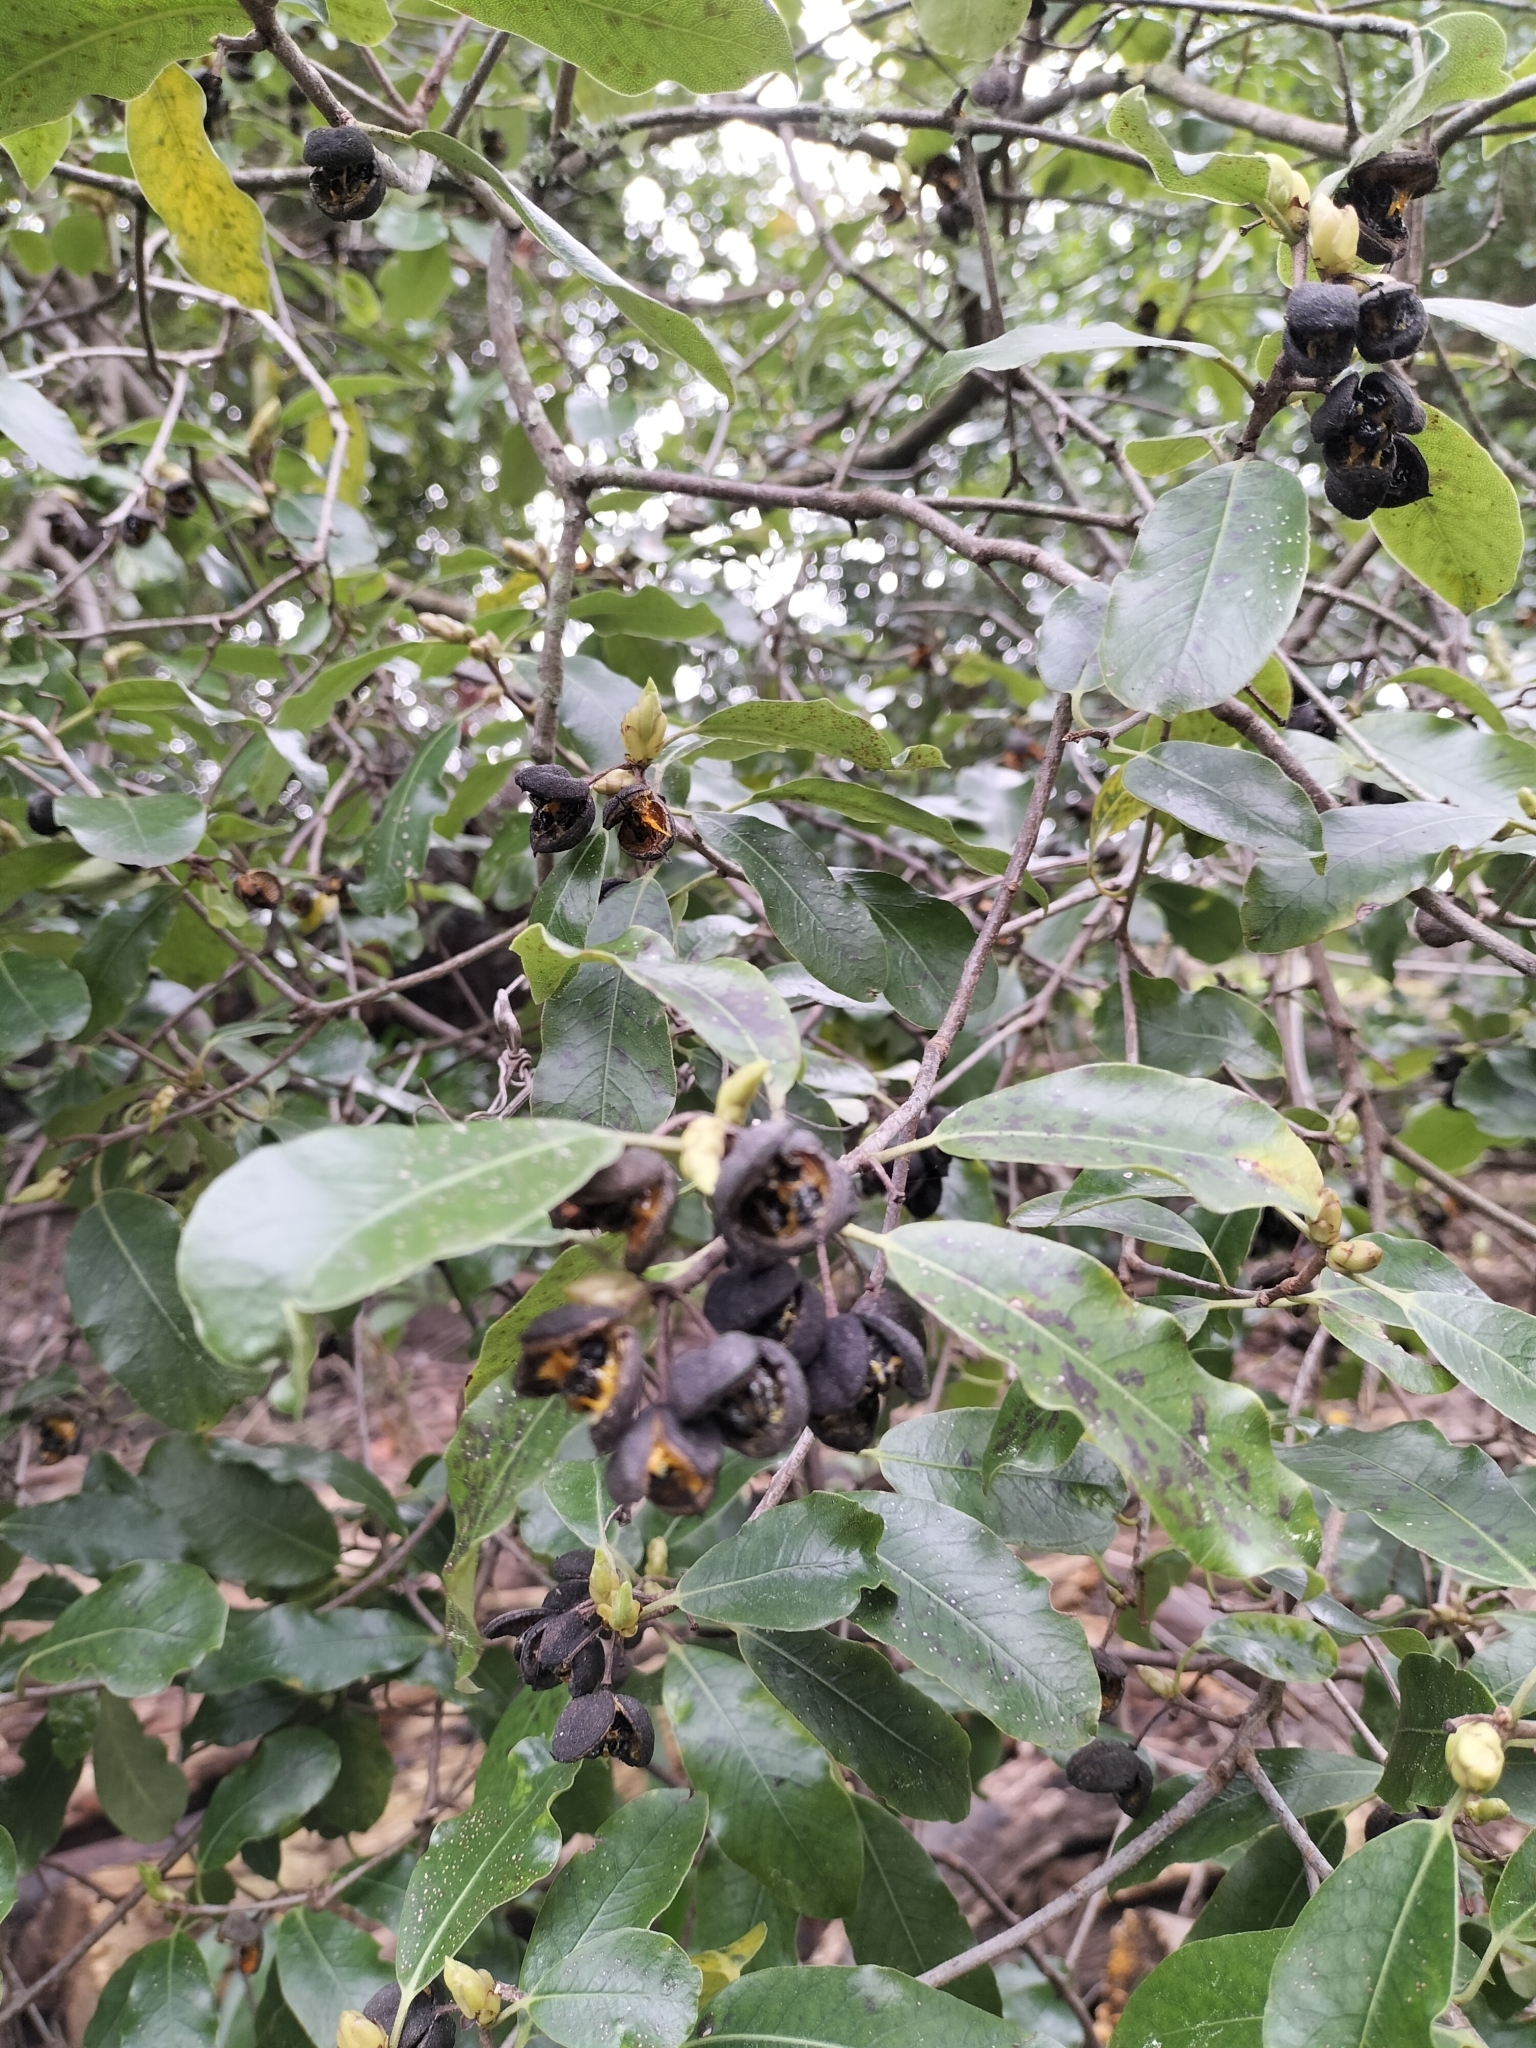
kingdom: Plantae
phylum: Tracheophyta
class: Magnoliopsida
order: Apiales
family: Pittosporaceae
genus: Pittosporum
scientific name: Pittosporum tenuifolium
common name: Kohuhu
